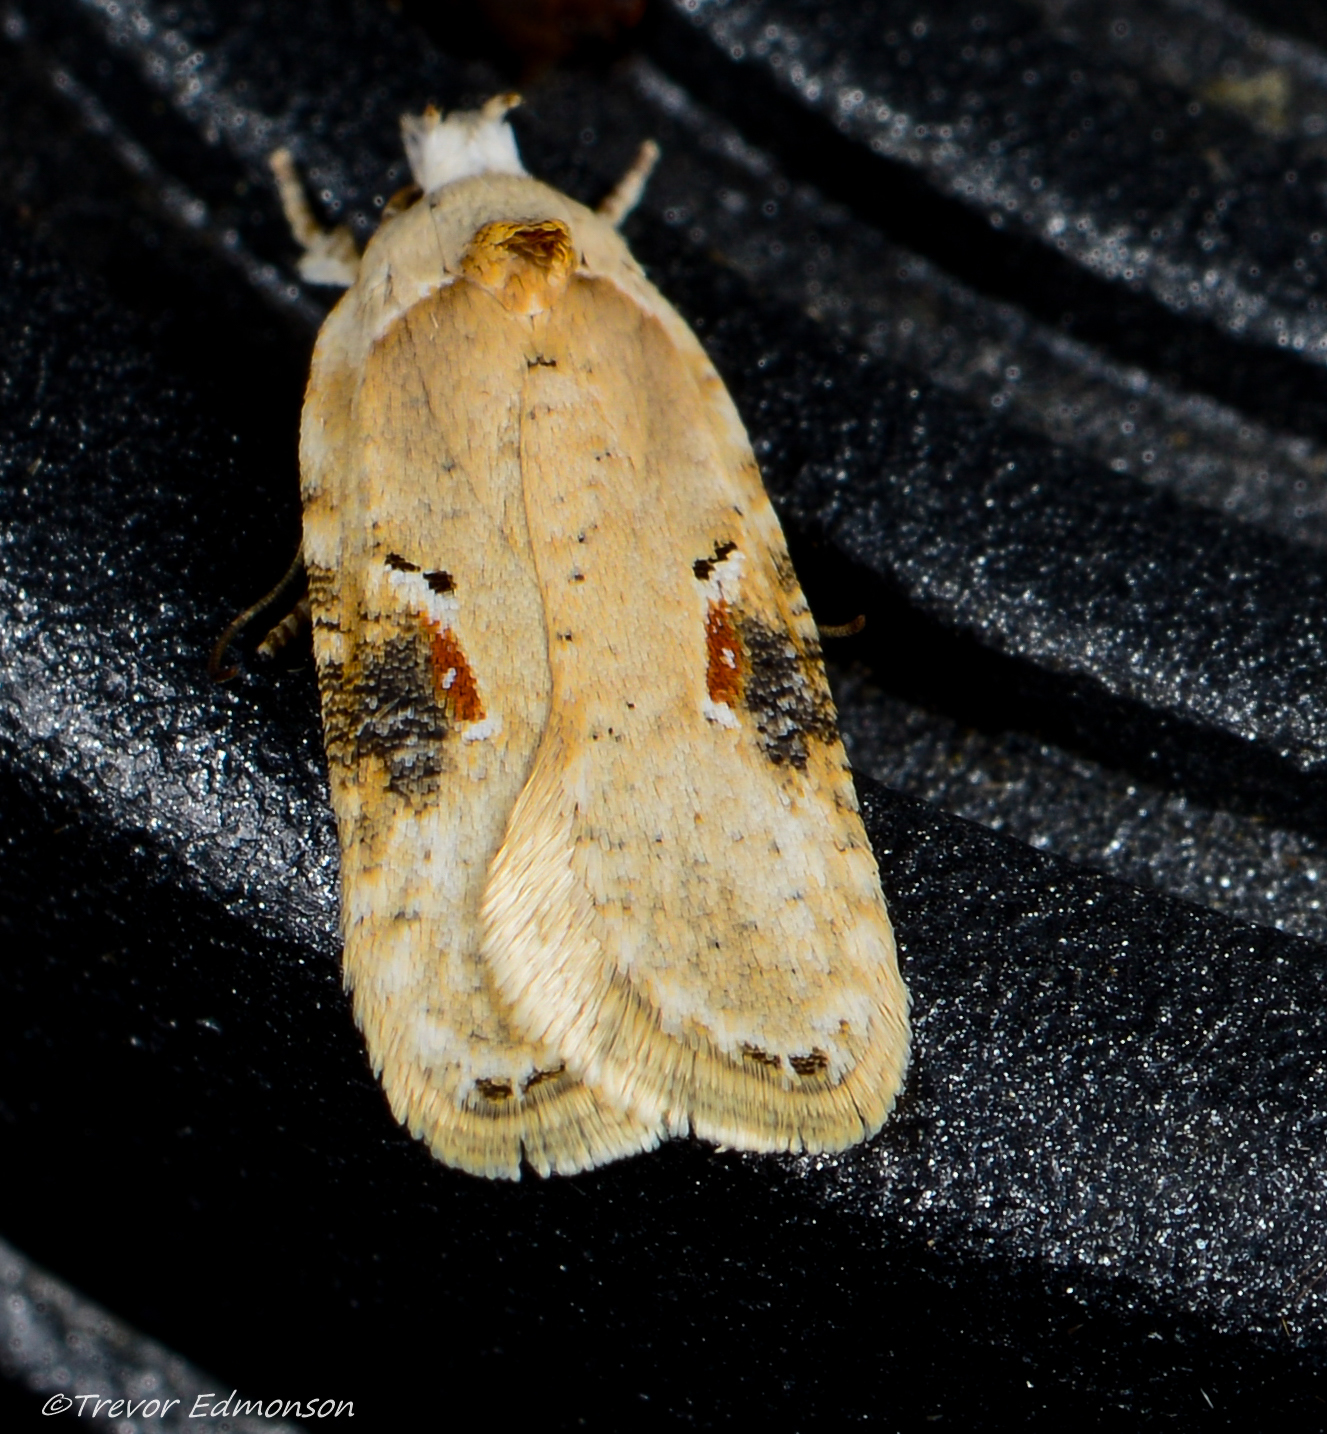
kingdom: Animalia
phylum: Arthropoda
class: Insecta
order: Lepidoptera
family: Depressariidae
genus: Agonopterix
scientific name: Agonopterix alstroemeriana
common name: Moth
